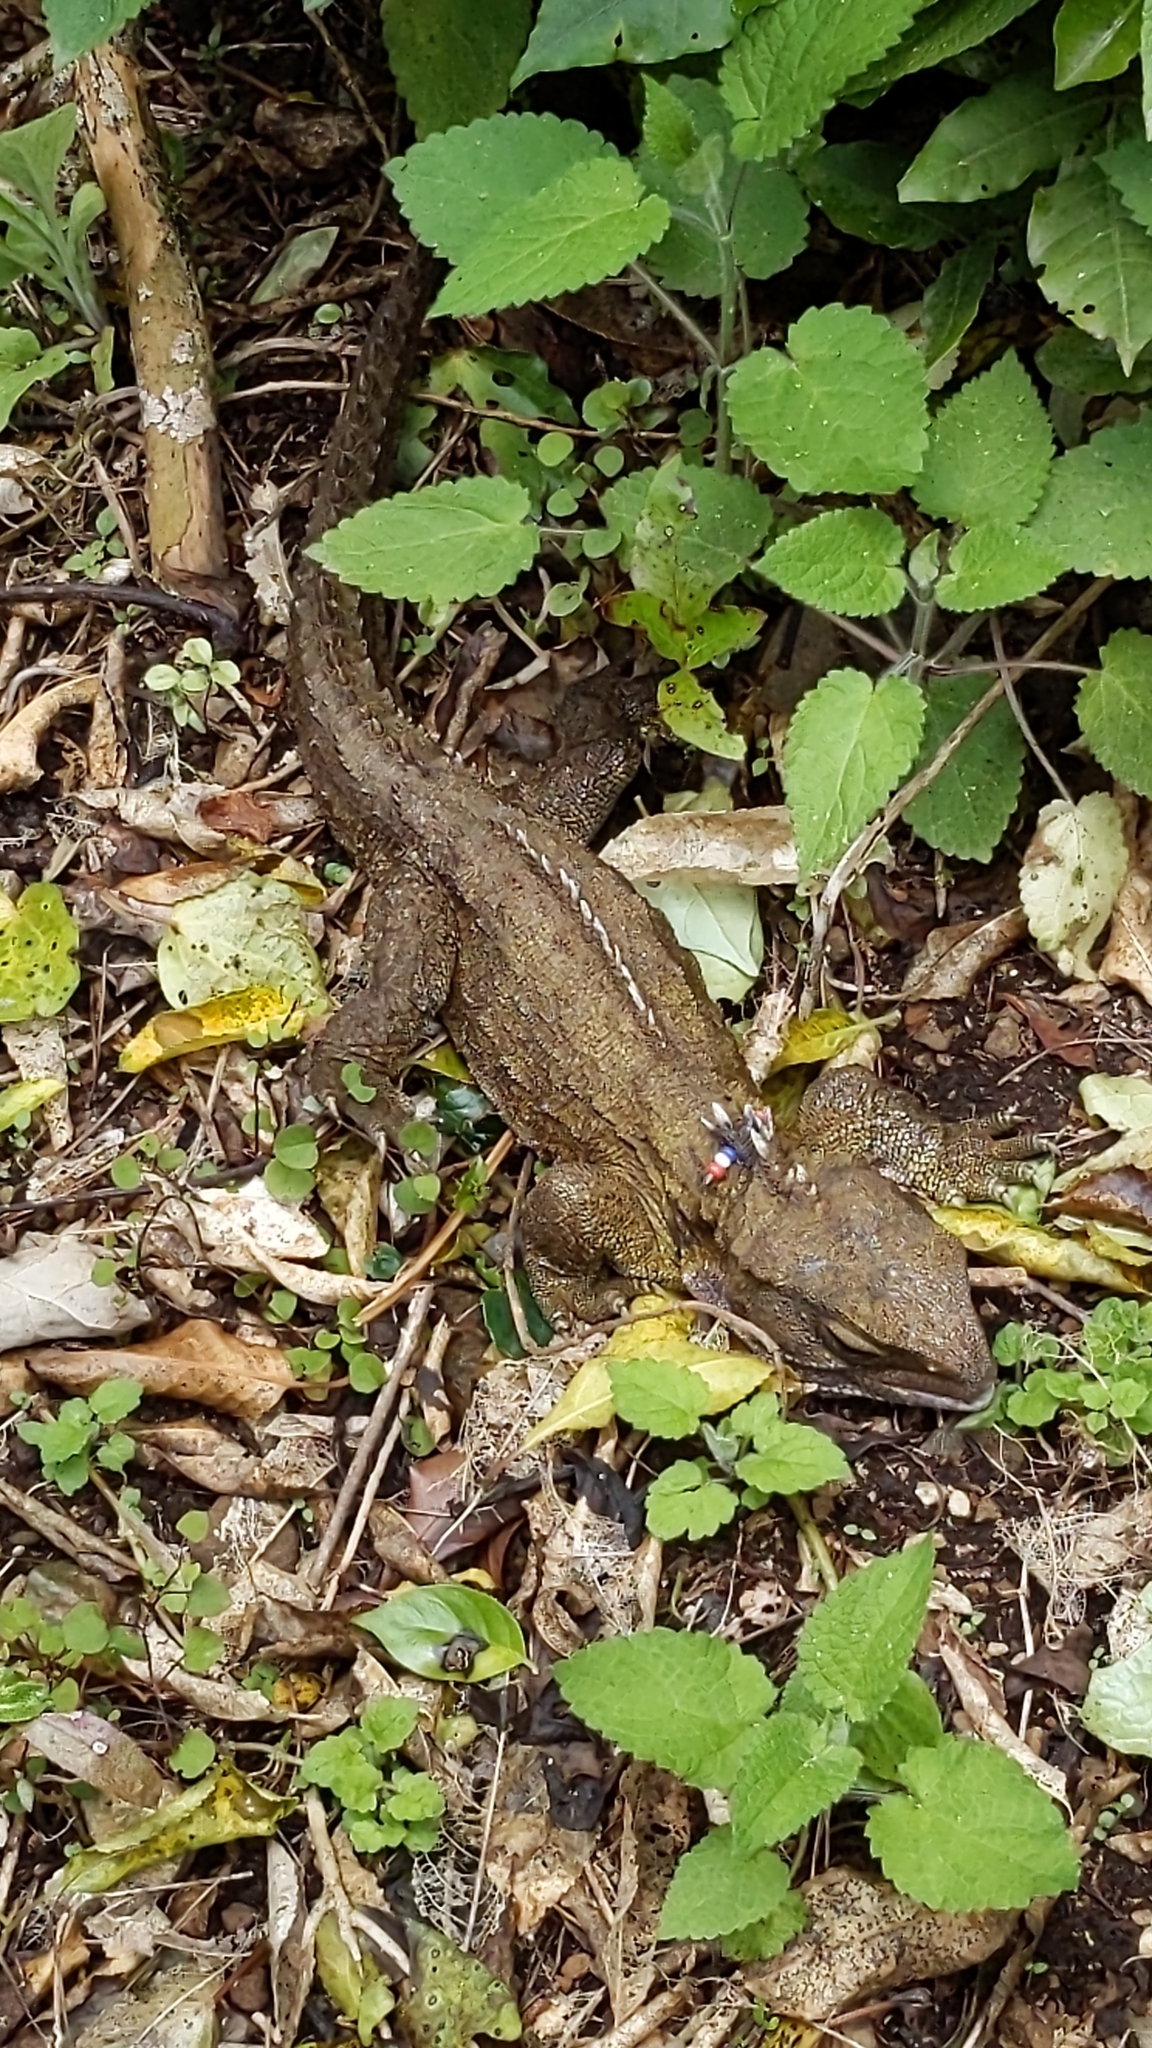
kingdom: Animalia
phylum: Chordata
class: Sphenodontia
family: Sphenodontidae
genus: Sphenodon
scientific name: Sphenodon punctatus
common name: Tuatara
